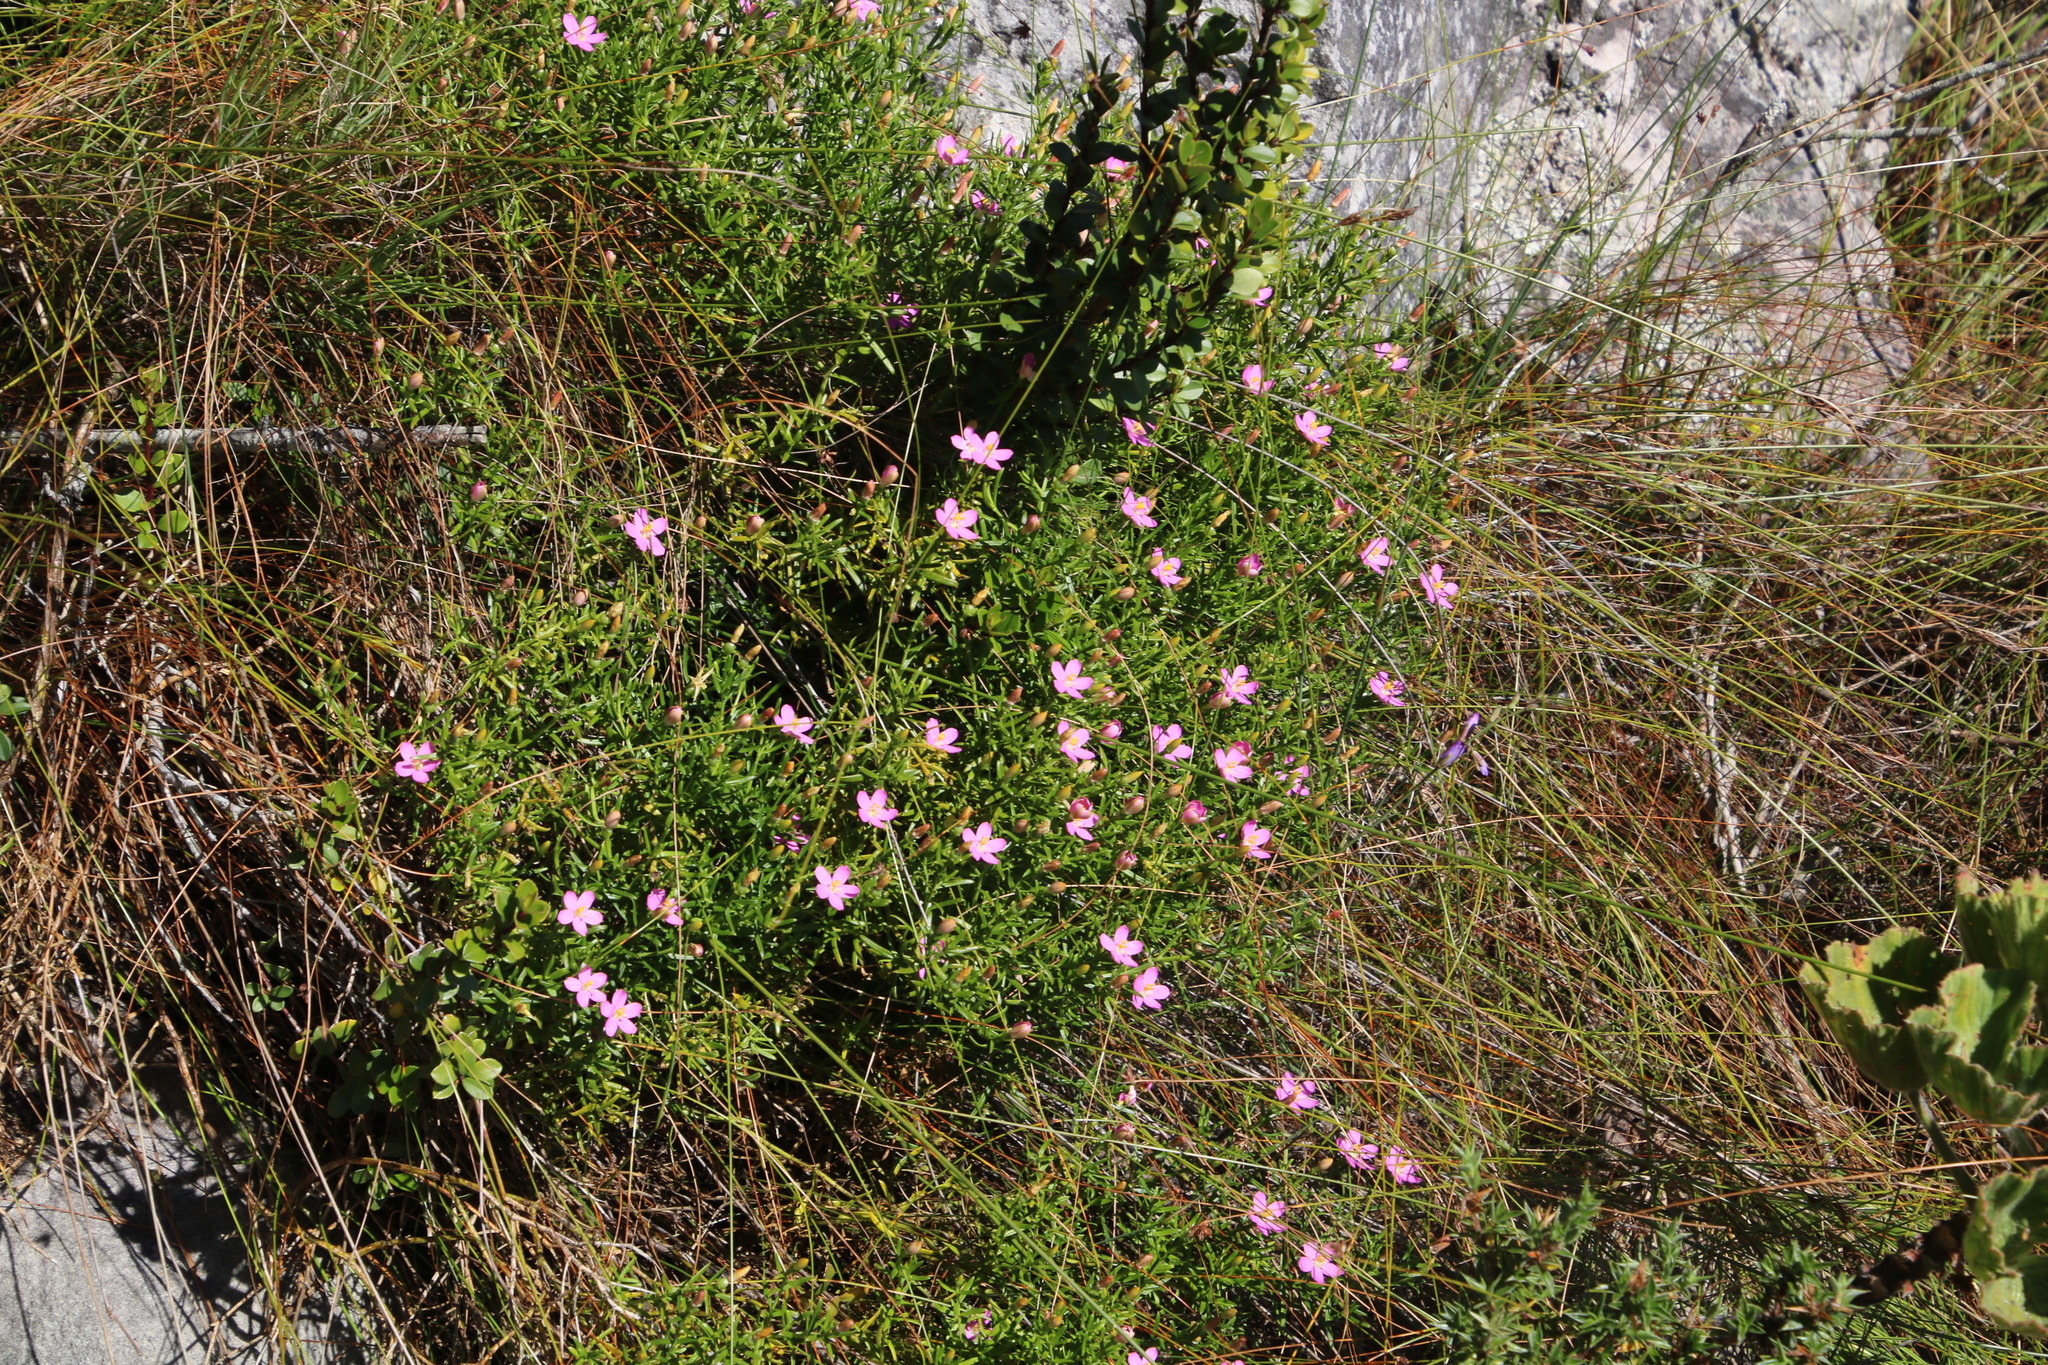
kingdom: Plantae
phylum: Tracheophyta
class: Magnoliopsida
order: Gentianales
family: Gentianaceae
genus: Chironia
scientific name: Chironia baccifera
